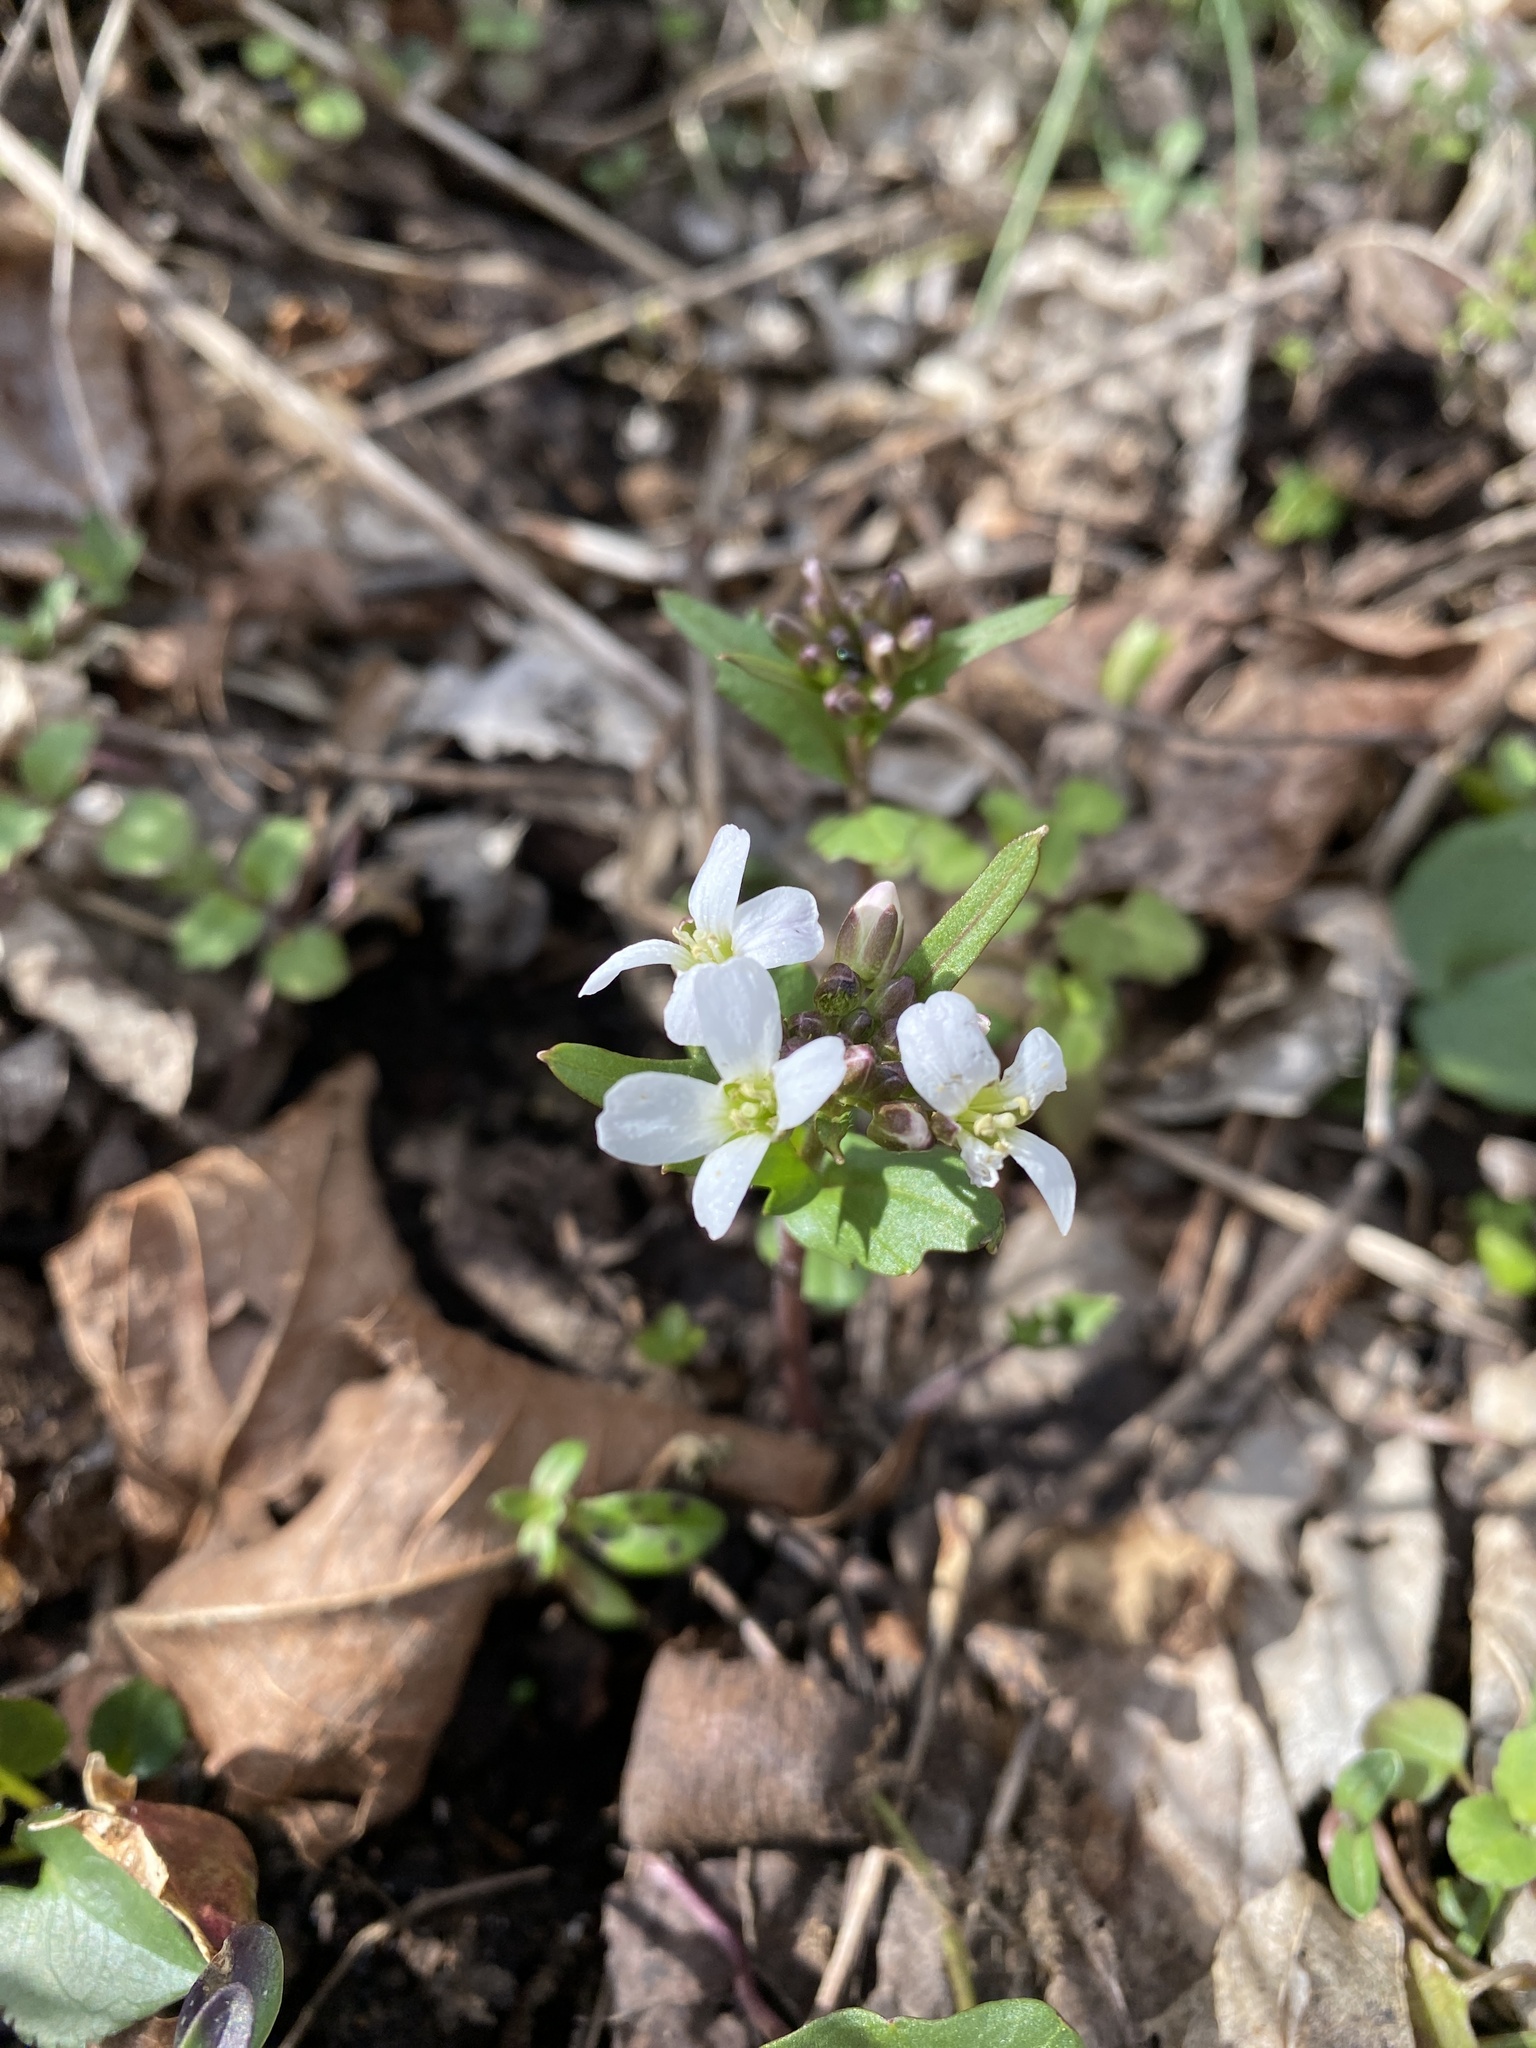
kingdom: Plantae
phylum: Tracheophyta
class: Magnoliopsida
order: Brassicales
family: Brassicaceae
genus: Cardamine
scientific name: Cardamine douglassii
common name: Purple cress
